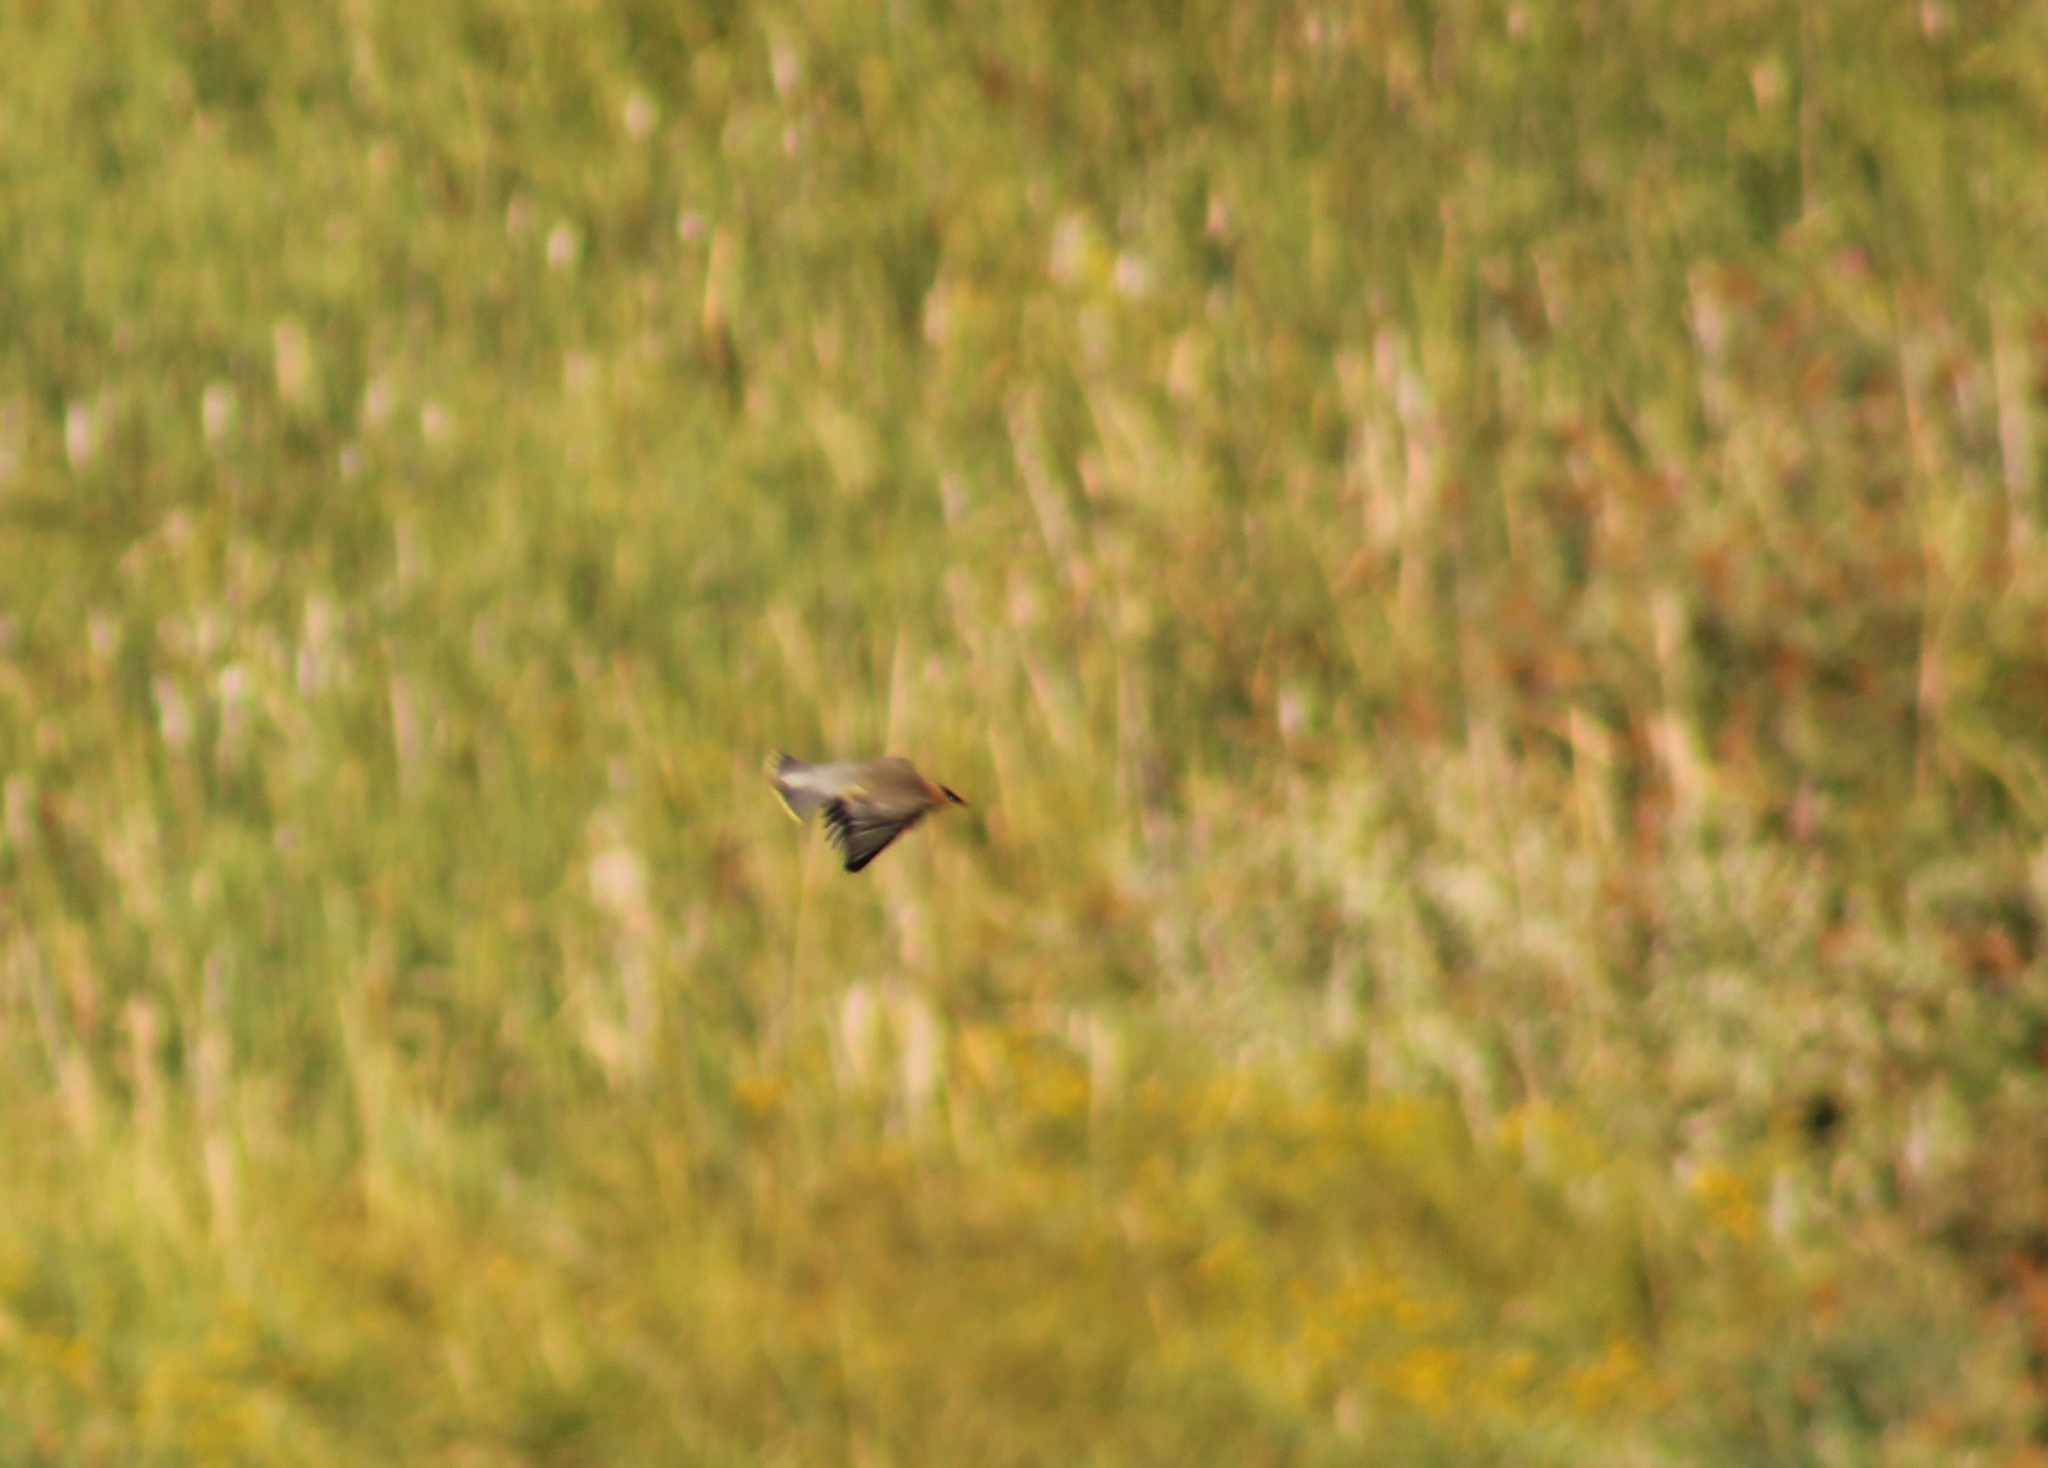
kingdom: Animalia
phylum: Chordata
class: Aves
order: Passeriformes
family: Bombycillidae
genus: Bombycilla
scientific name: Bombycilla cedrorum
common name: Cedar waxwing
